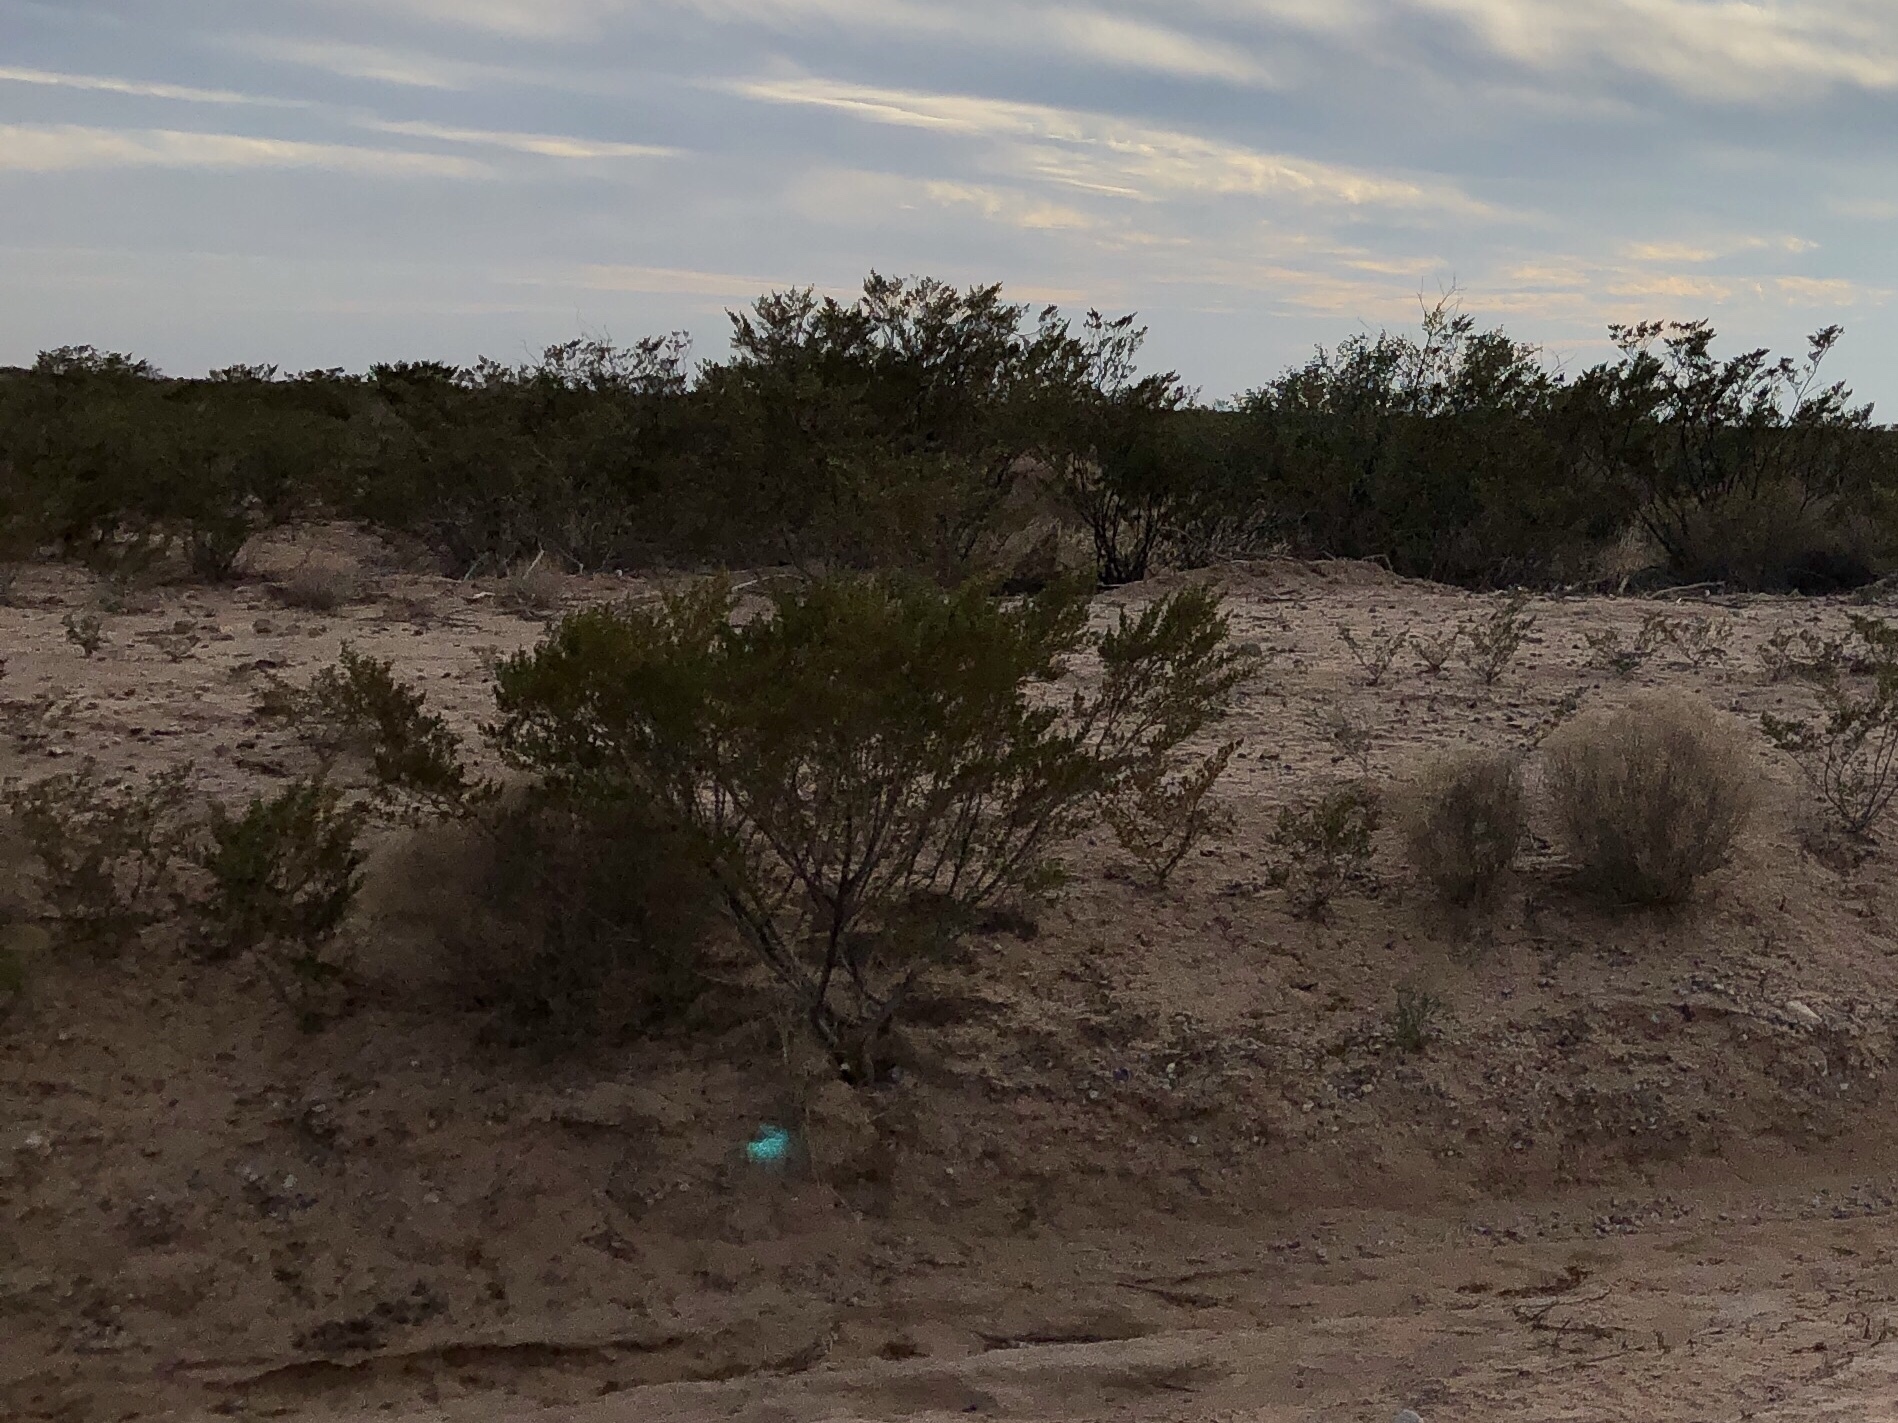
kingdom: Plantae
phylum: Tracheophyta
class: Magnoliopsida
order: Zygophyllales
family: Zygophyllaceae
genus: Larrea
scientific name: Larrea tridentata
